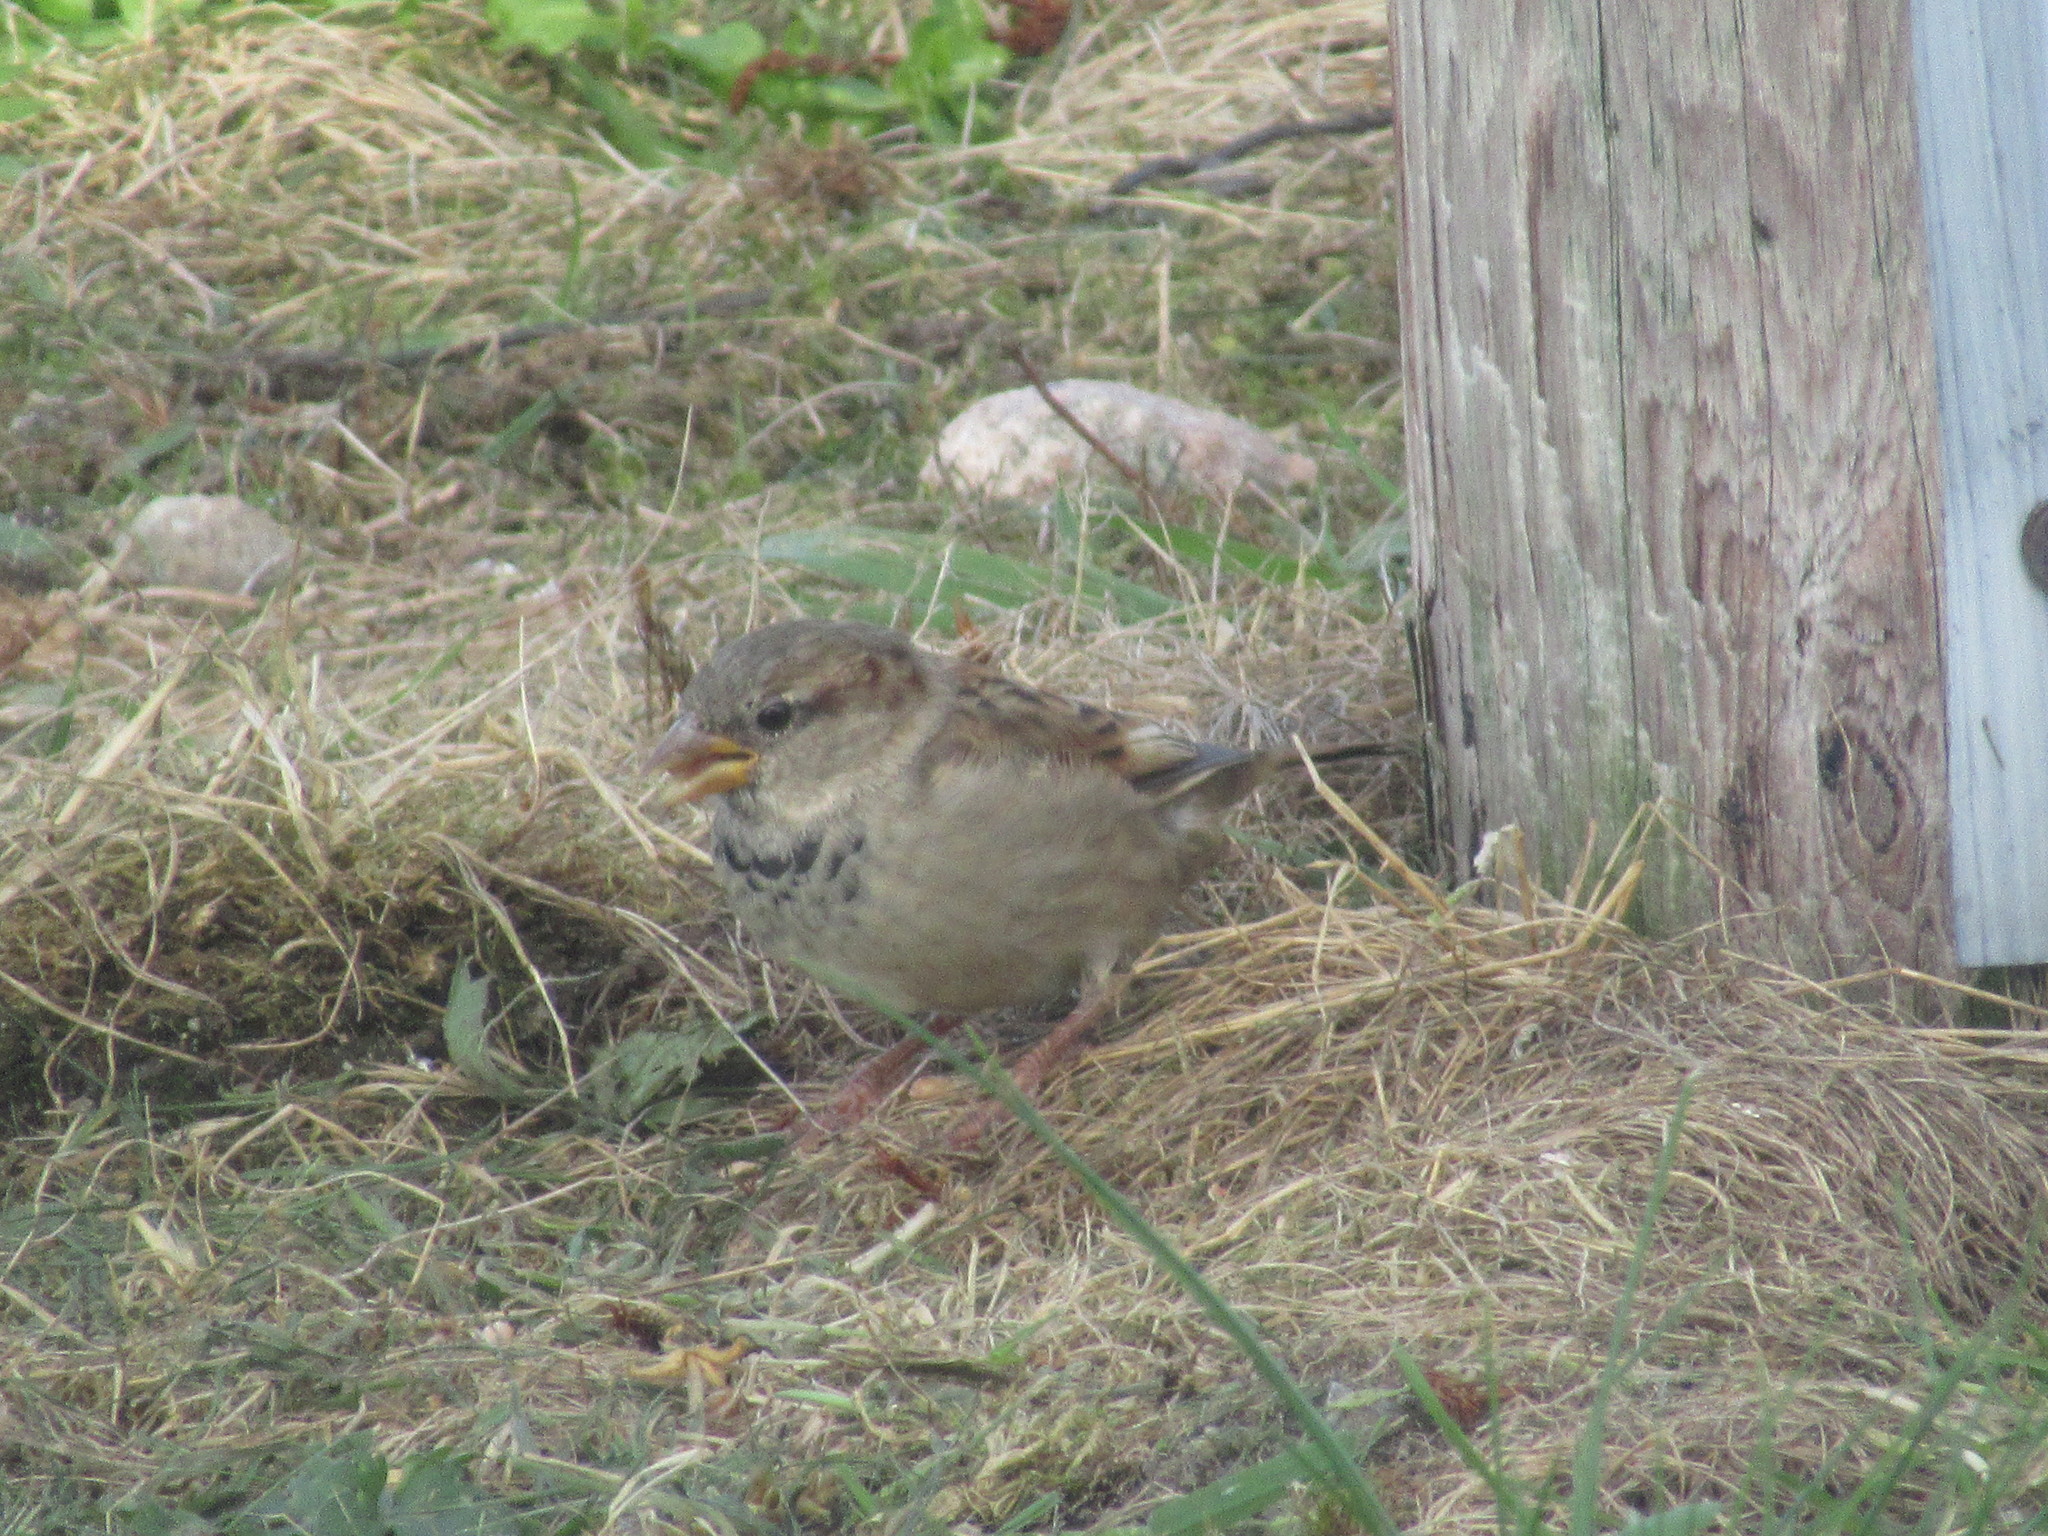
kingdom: Animalia
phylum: Chordata
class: Aves
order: Passeriformes
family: Passeridae
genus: Passer
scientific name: Passer domesticus
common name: House sparrow
